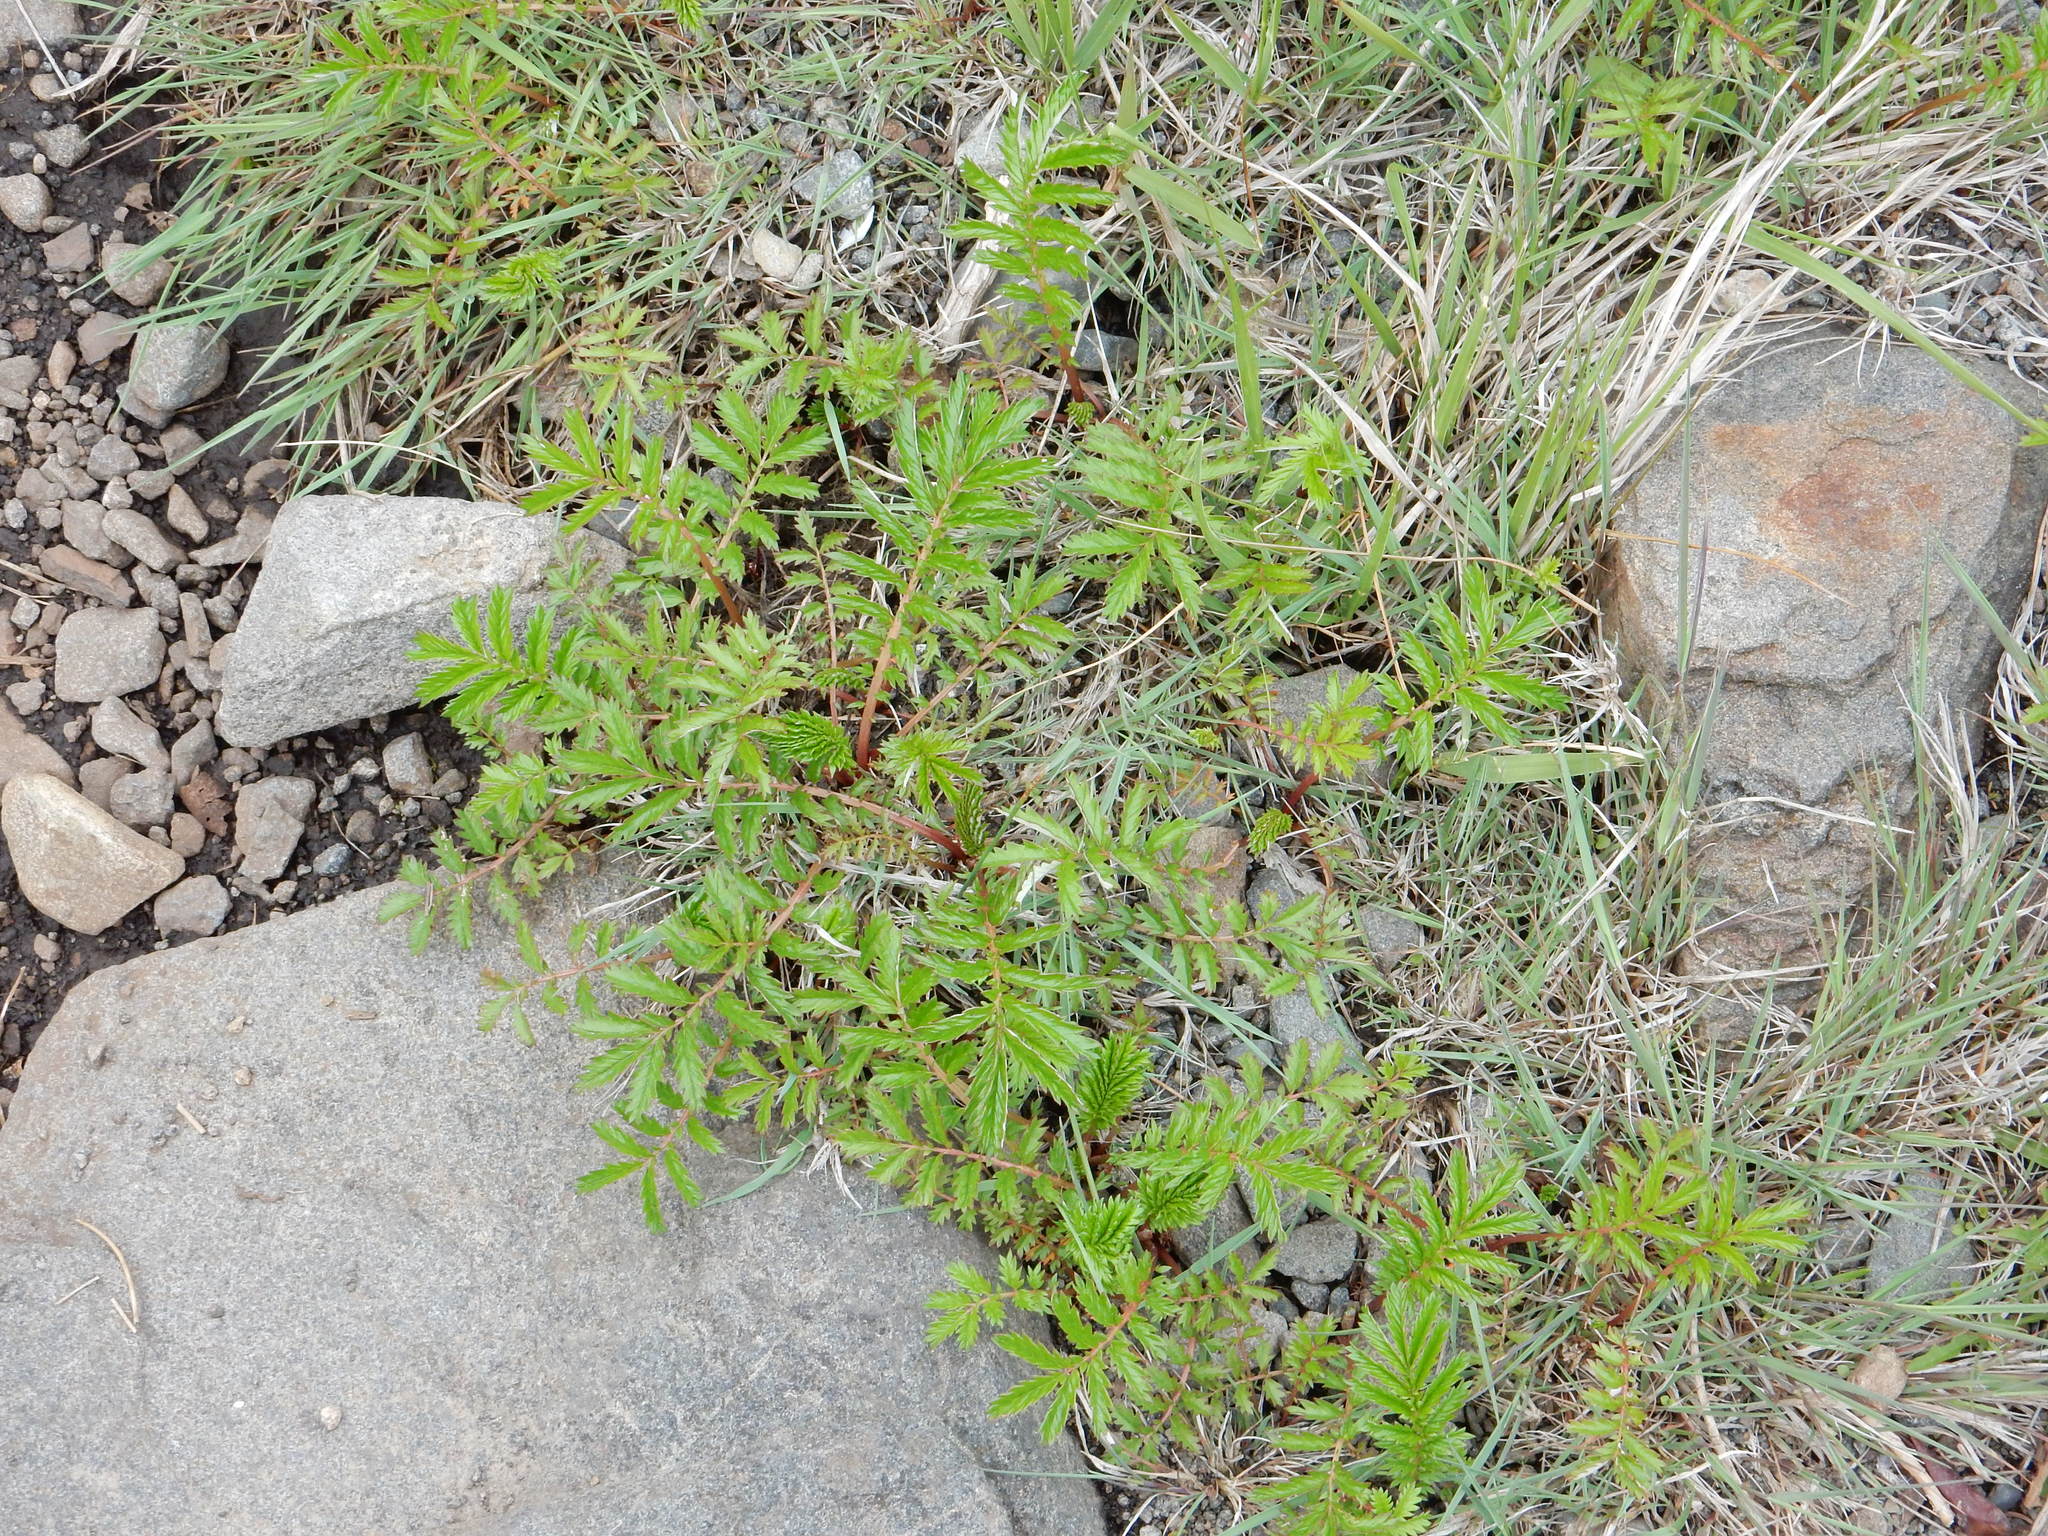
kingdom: Plantae
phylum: Tracheophyta
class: Magnoliopsida
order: Rosales
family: Rosaceae
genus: Argentina
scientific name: Argentina anserina
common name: Common silverweed
